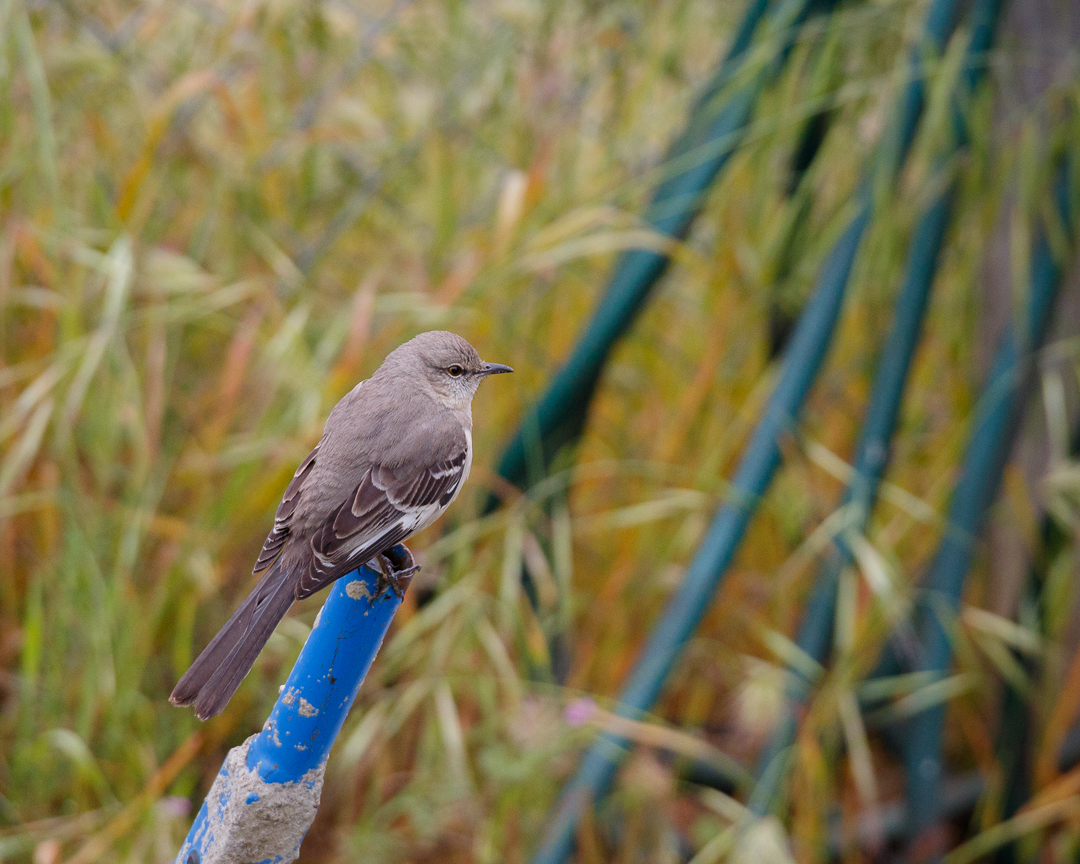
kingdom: Animalia
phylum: Chordata
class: Aves
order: Passeriformes
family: Mimidae
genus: Mimus
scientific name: Mimus polyglottos
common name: Northern mockingbird
